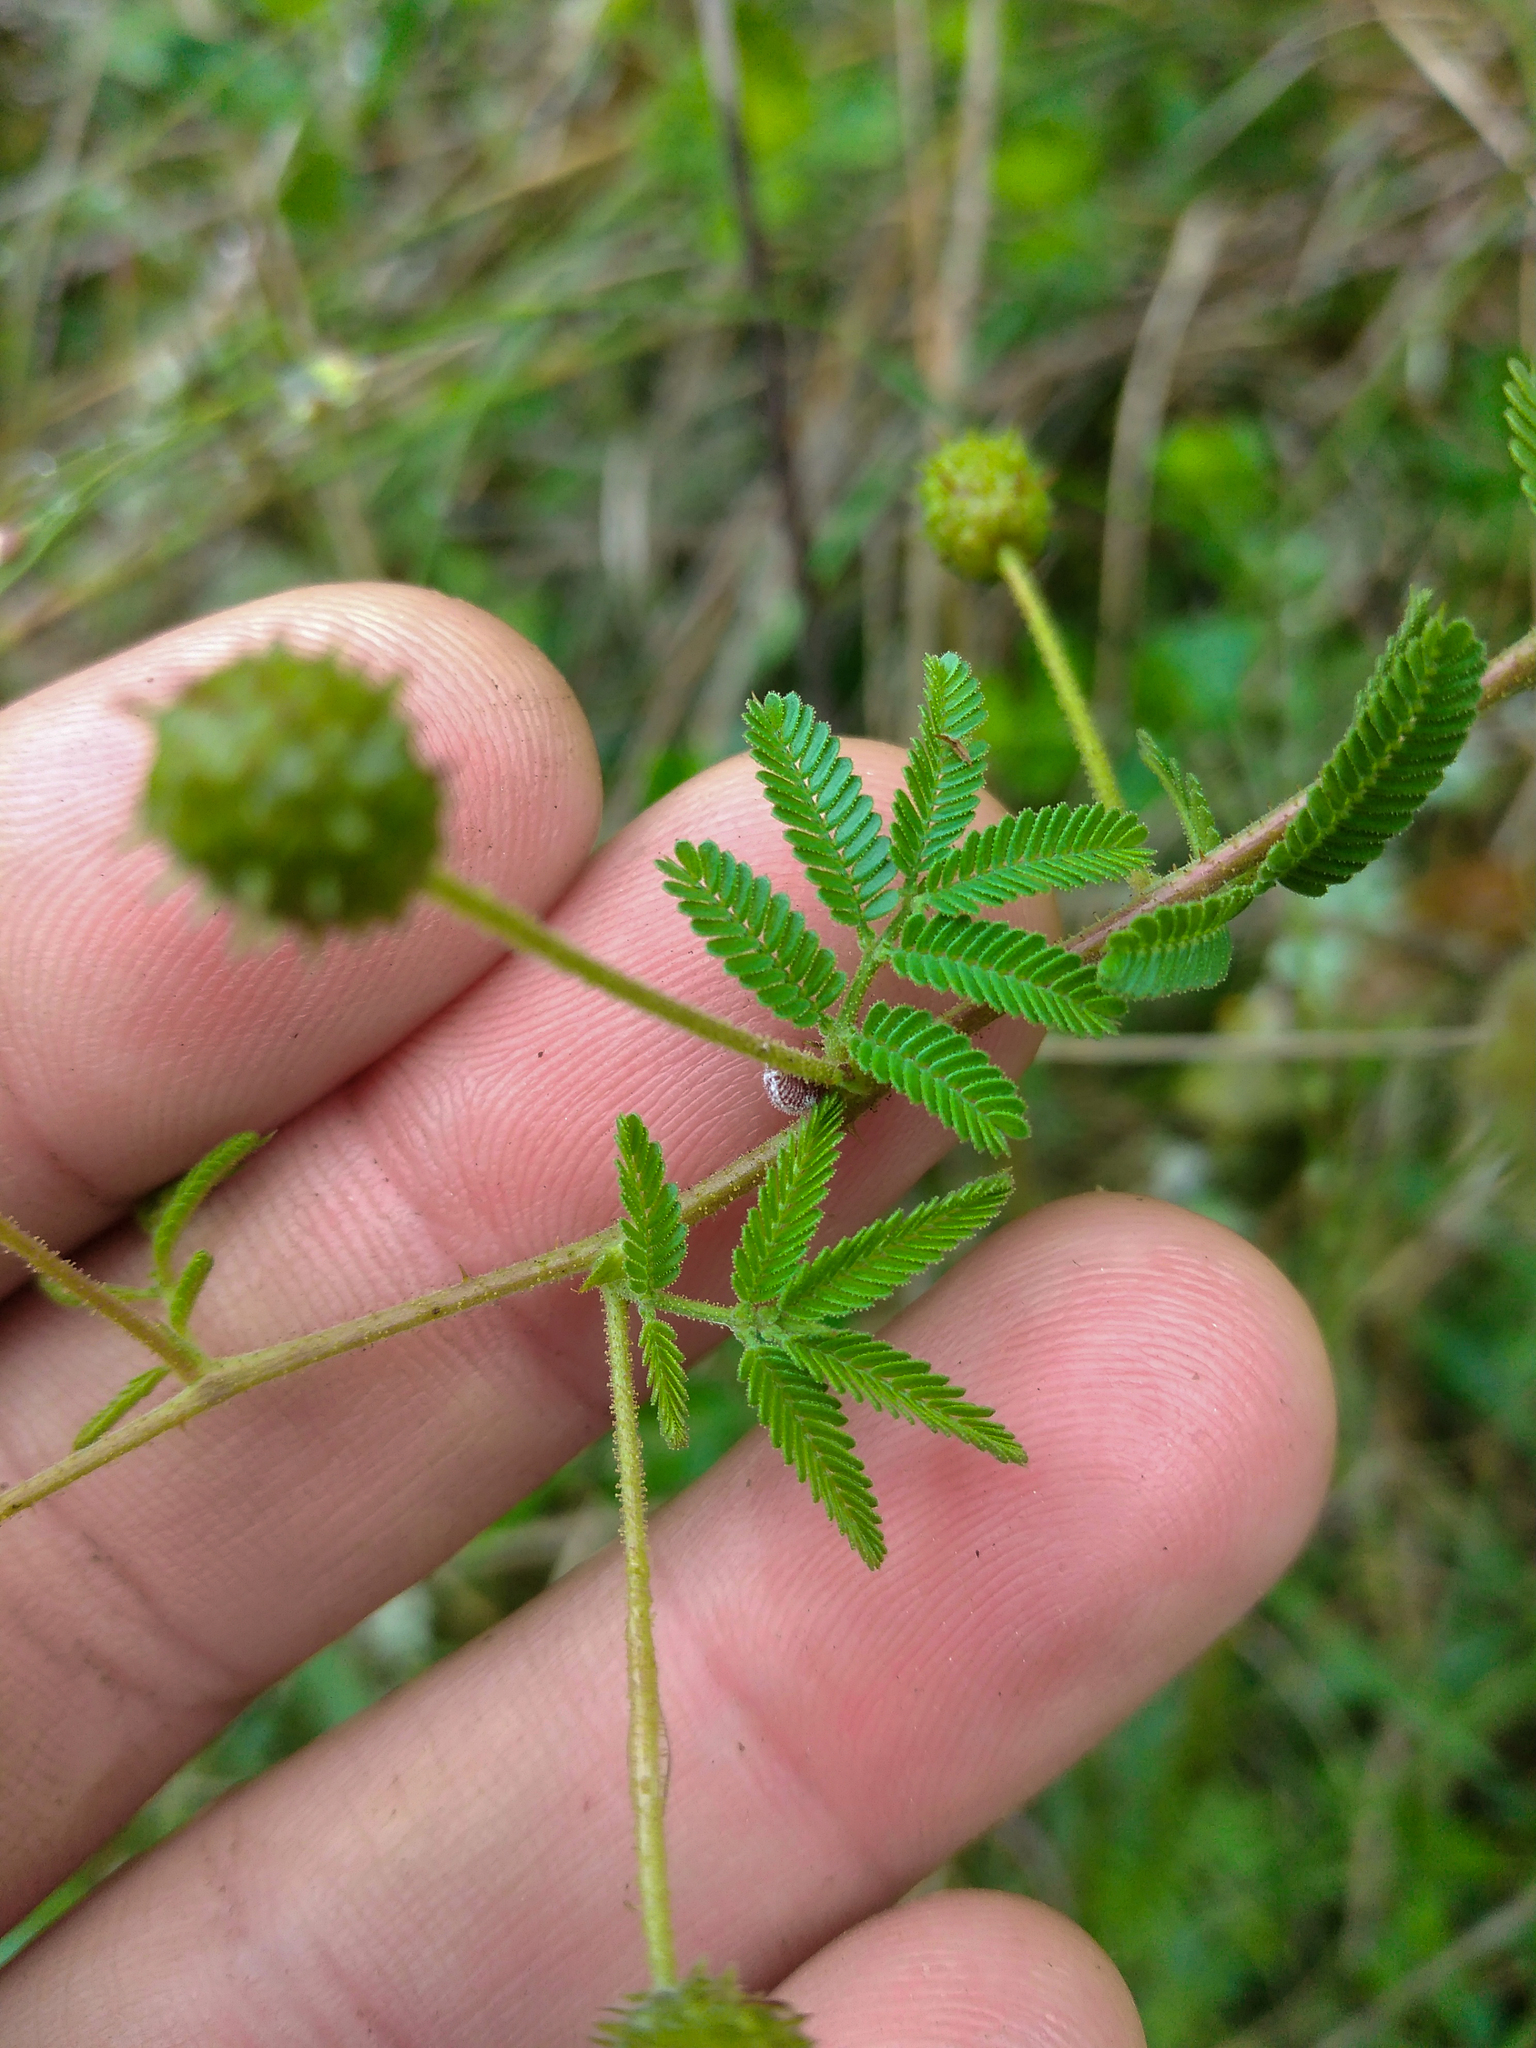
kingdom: Plantae
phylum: Tracheophyta
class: Magnoliopsida
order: Fabales
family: Fabaceae
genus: Mimosa
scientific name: Mimosa cruenta
